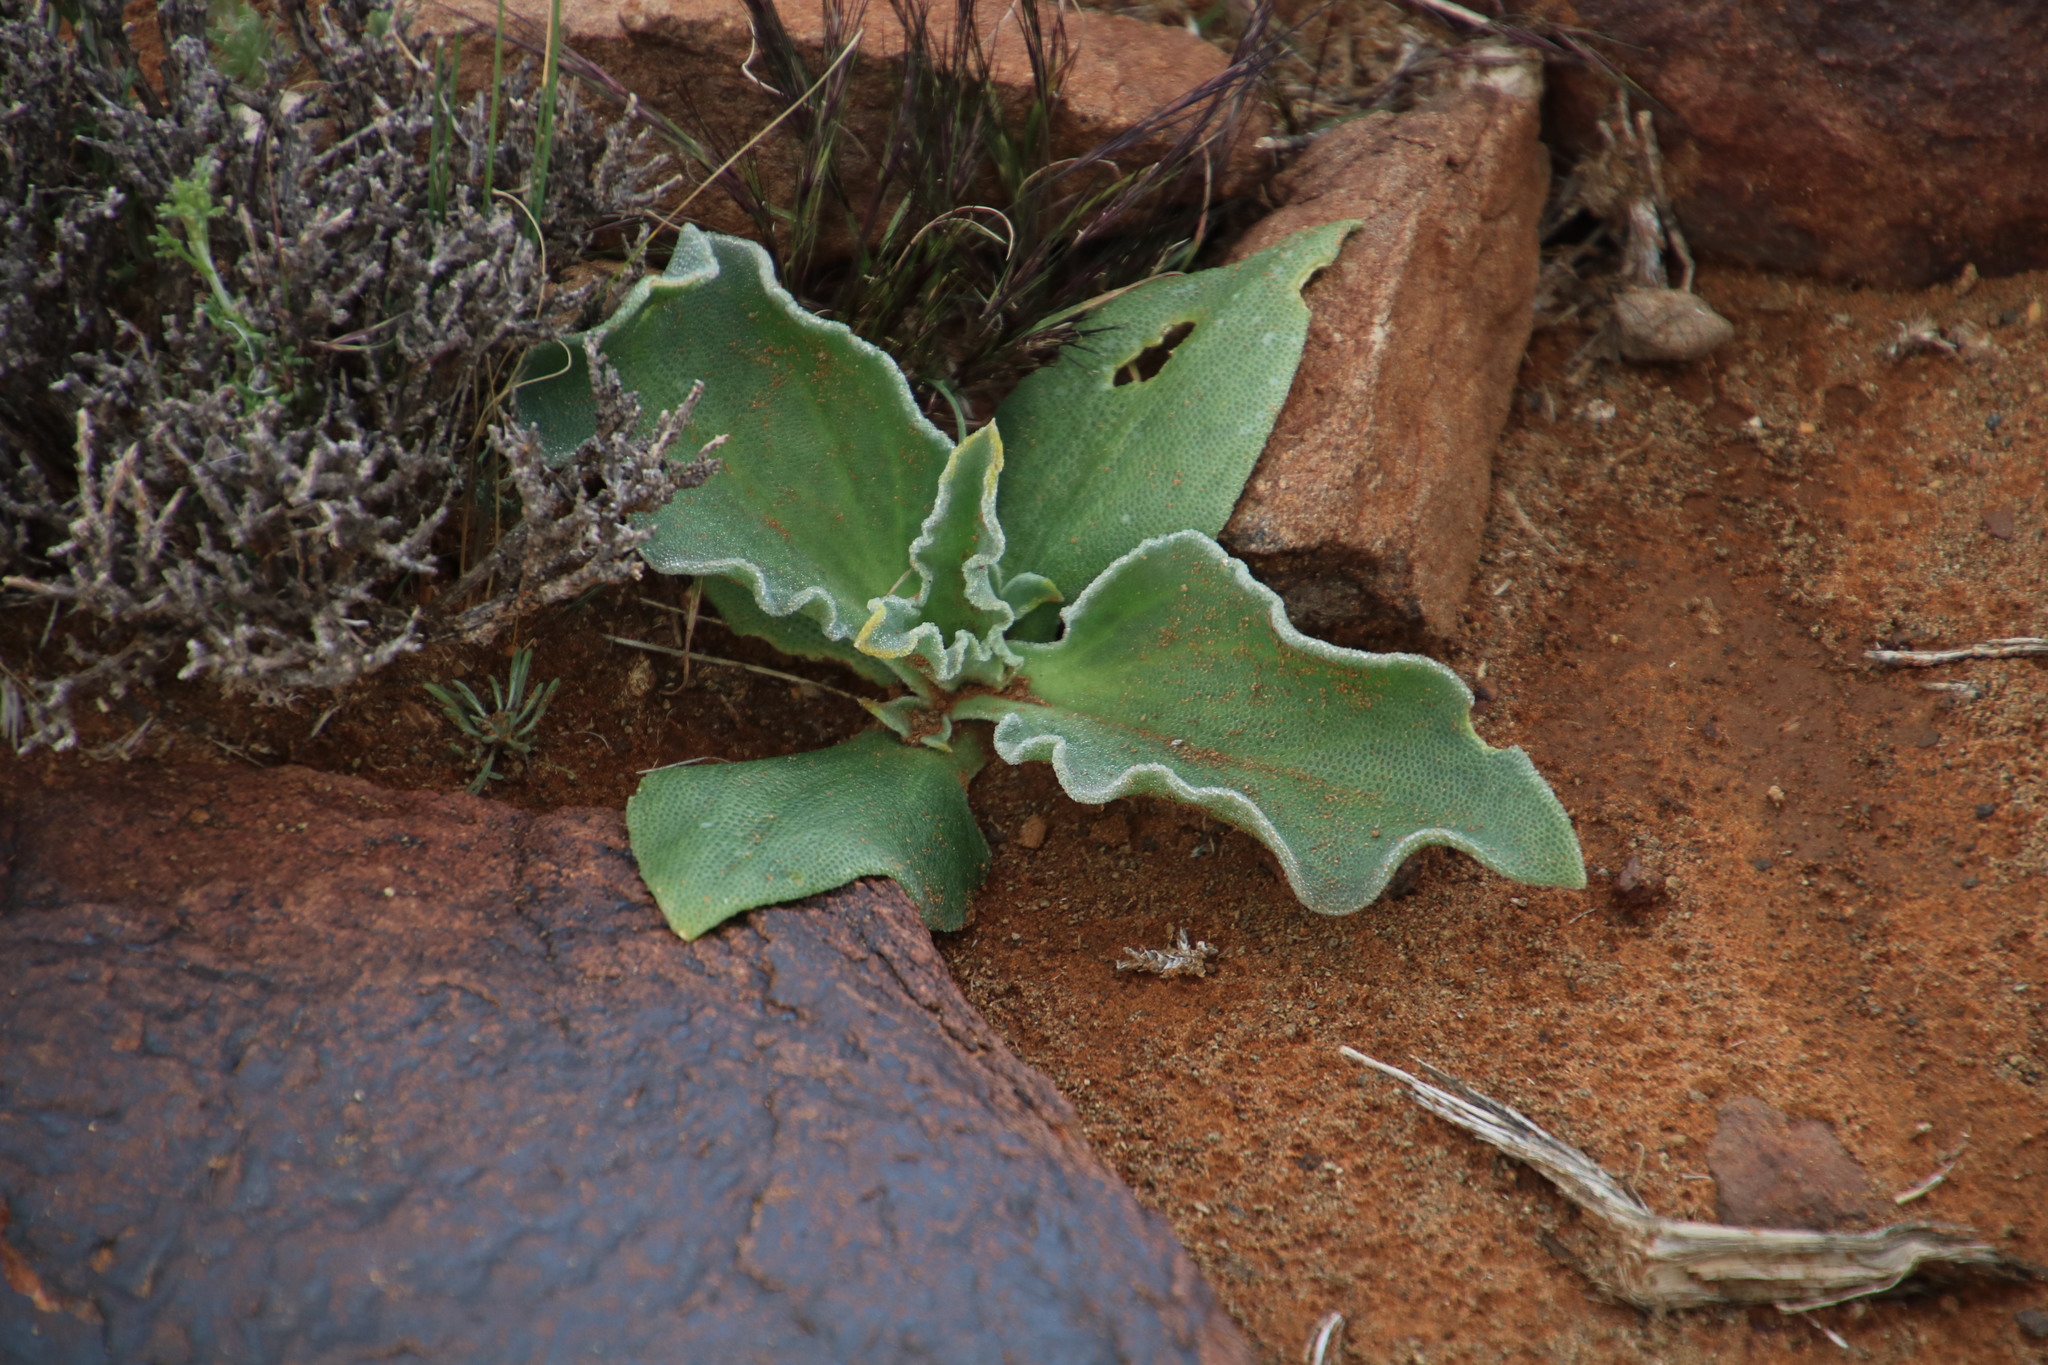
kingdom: Plantae
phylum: Tracheophyta
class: Magnoliopsida
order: Caryophyllales
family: Aizoaceae
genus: Mesembryanthemum
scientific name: Mesembryanthemum guerichianum
